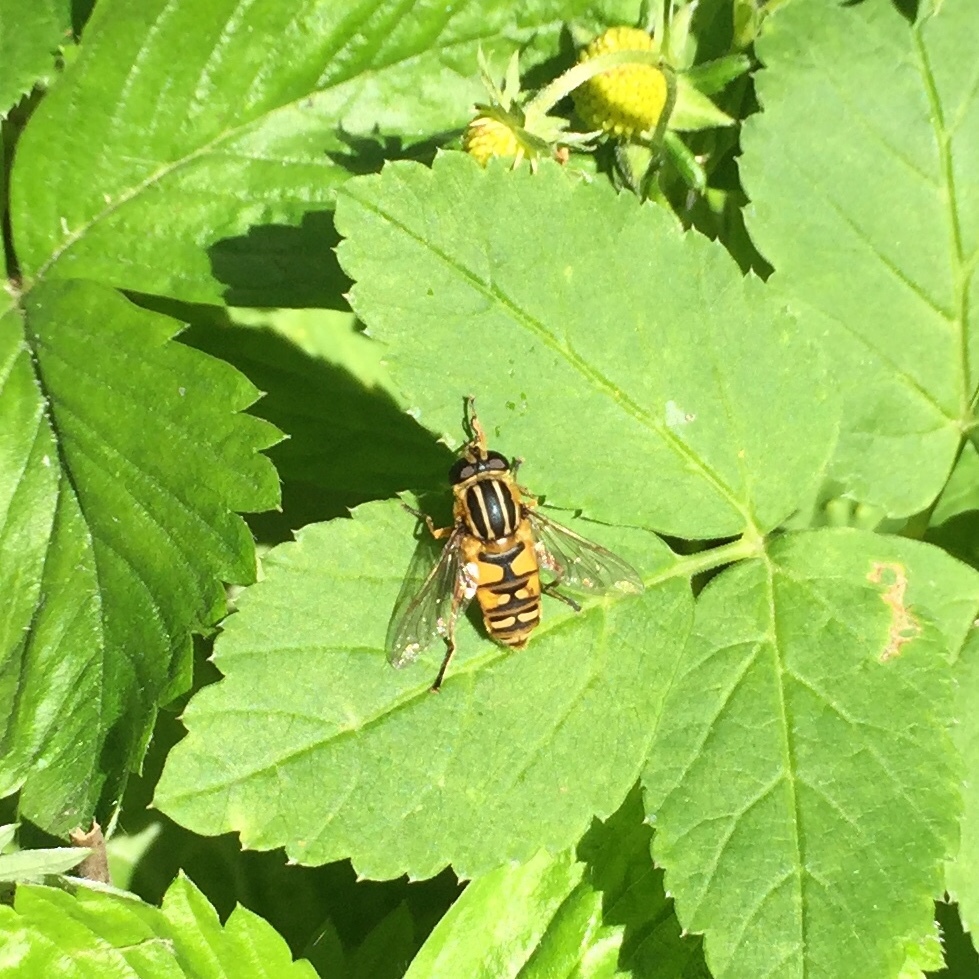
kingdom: Animalia
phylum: Arthropoda
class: Insecta
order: Diptera
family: Syrphidae
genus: Helophilus
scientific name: Helophilus pendulus
